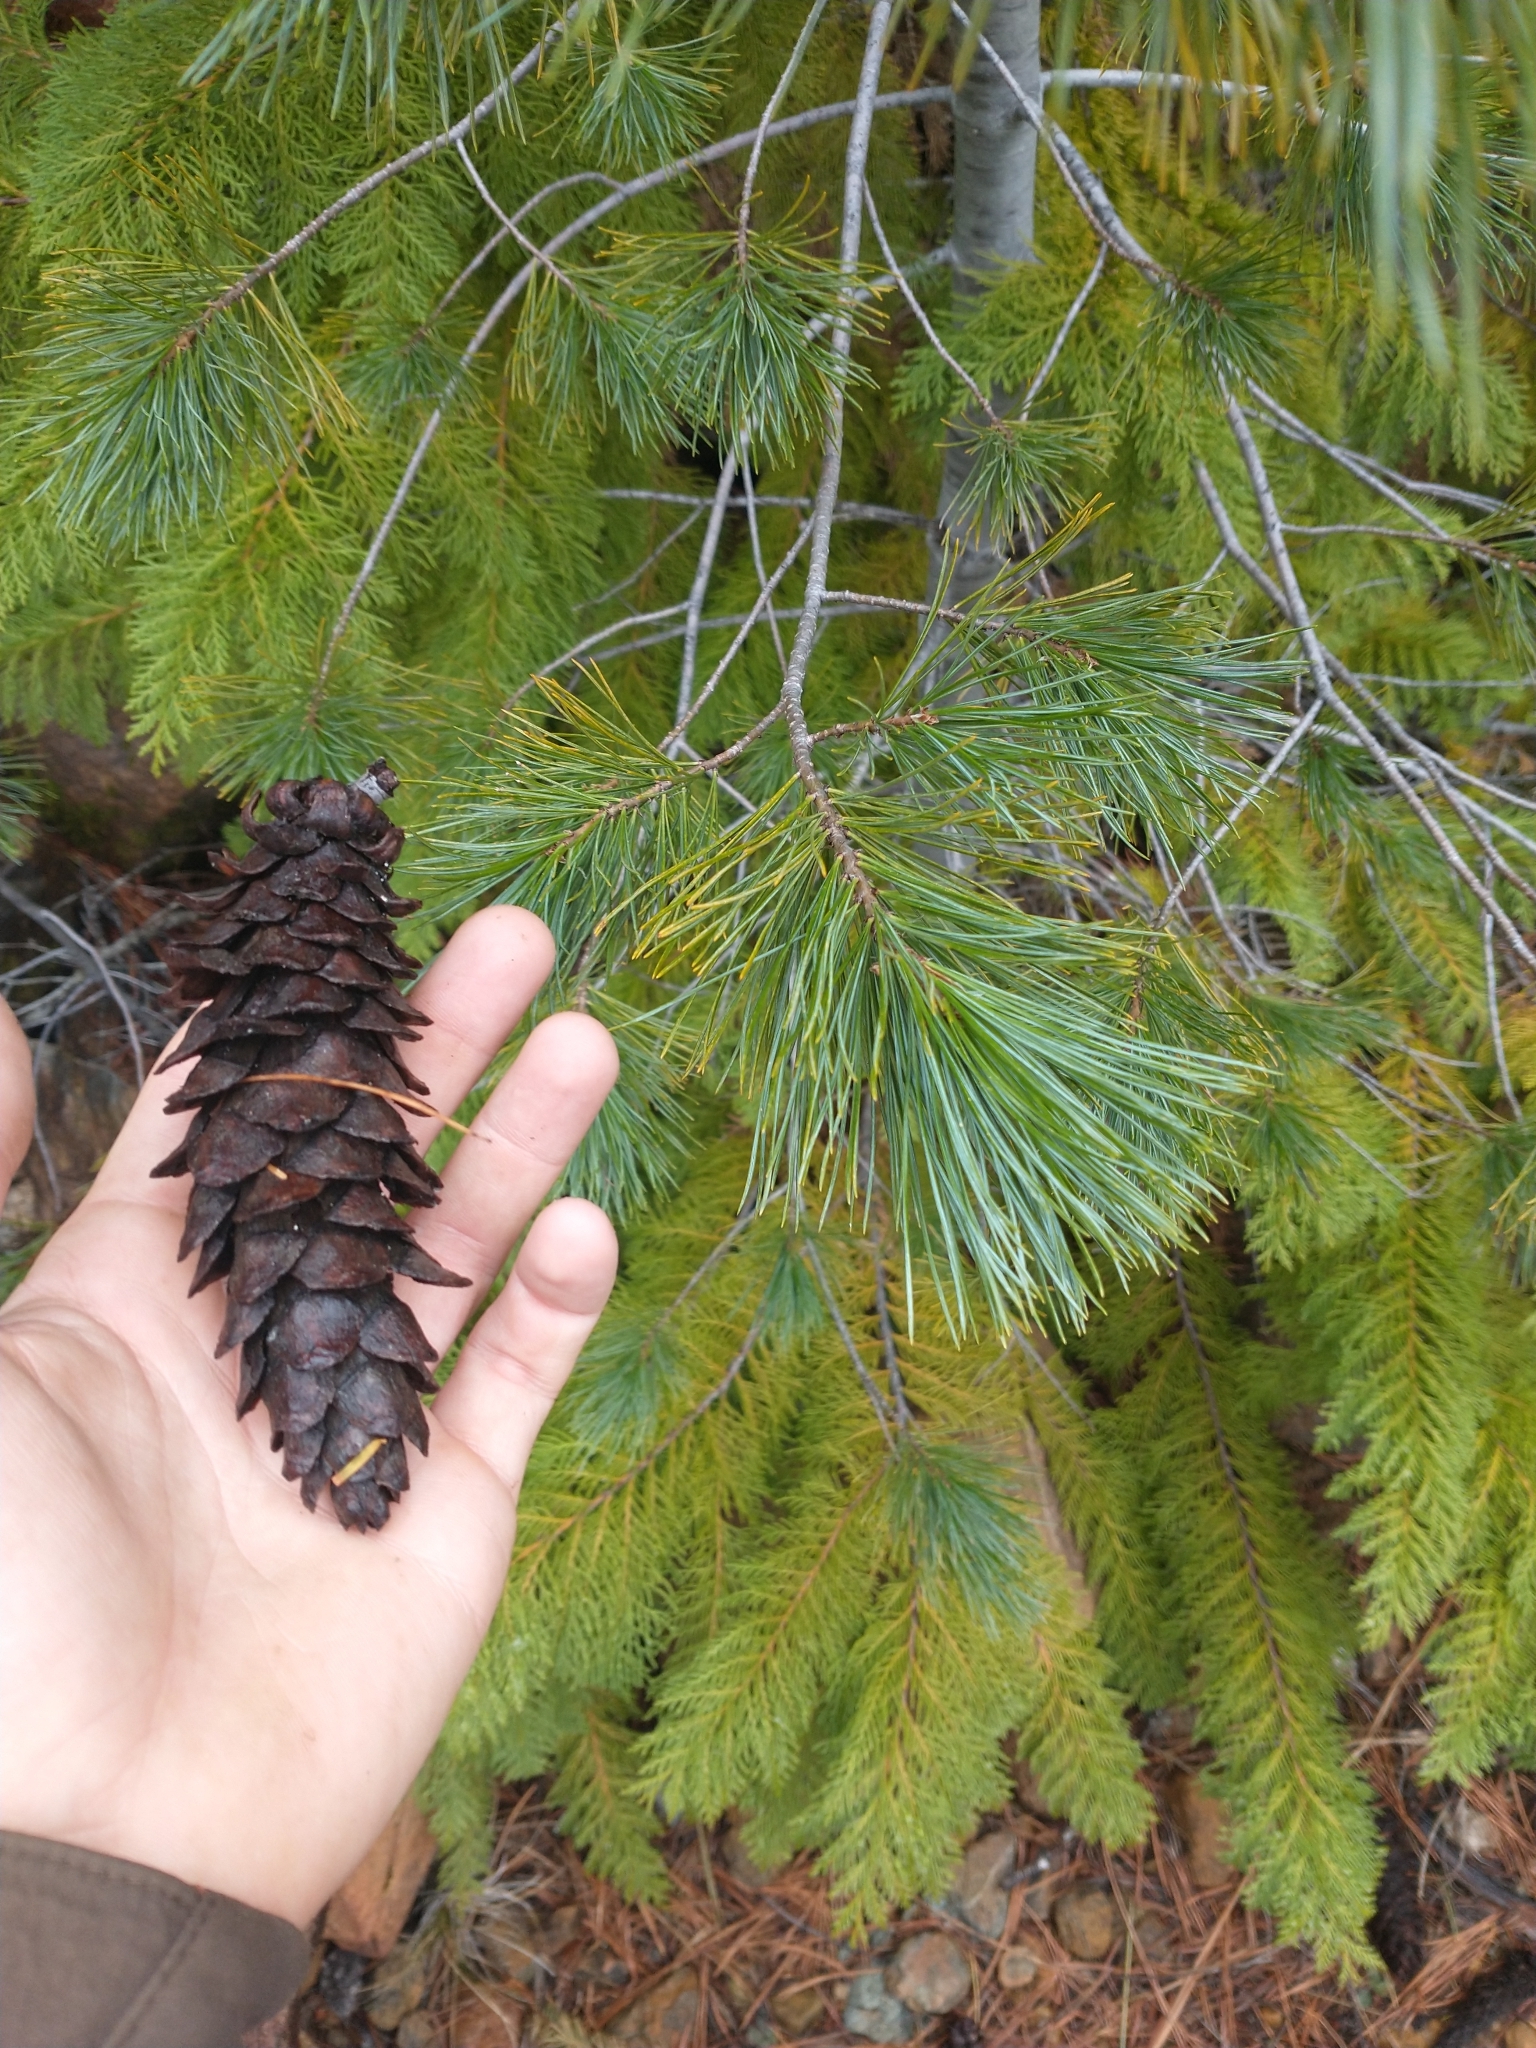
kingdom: Plantae
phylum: Tracheophyta
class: Pinopsida
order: Pinales
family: Pinaceae
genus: Pinus
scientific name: Pinus monticola
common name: Western white pine
